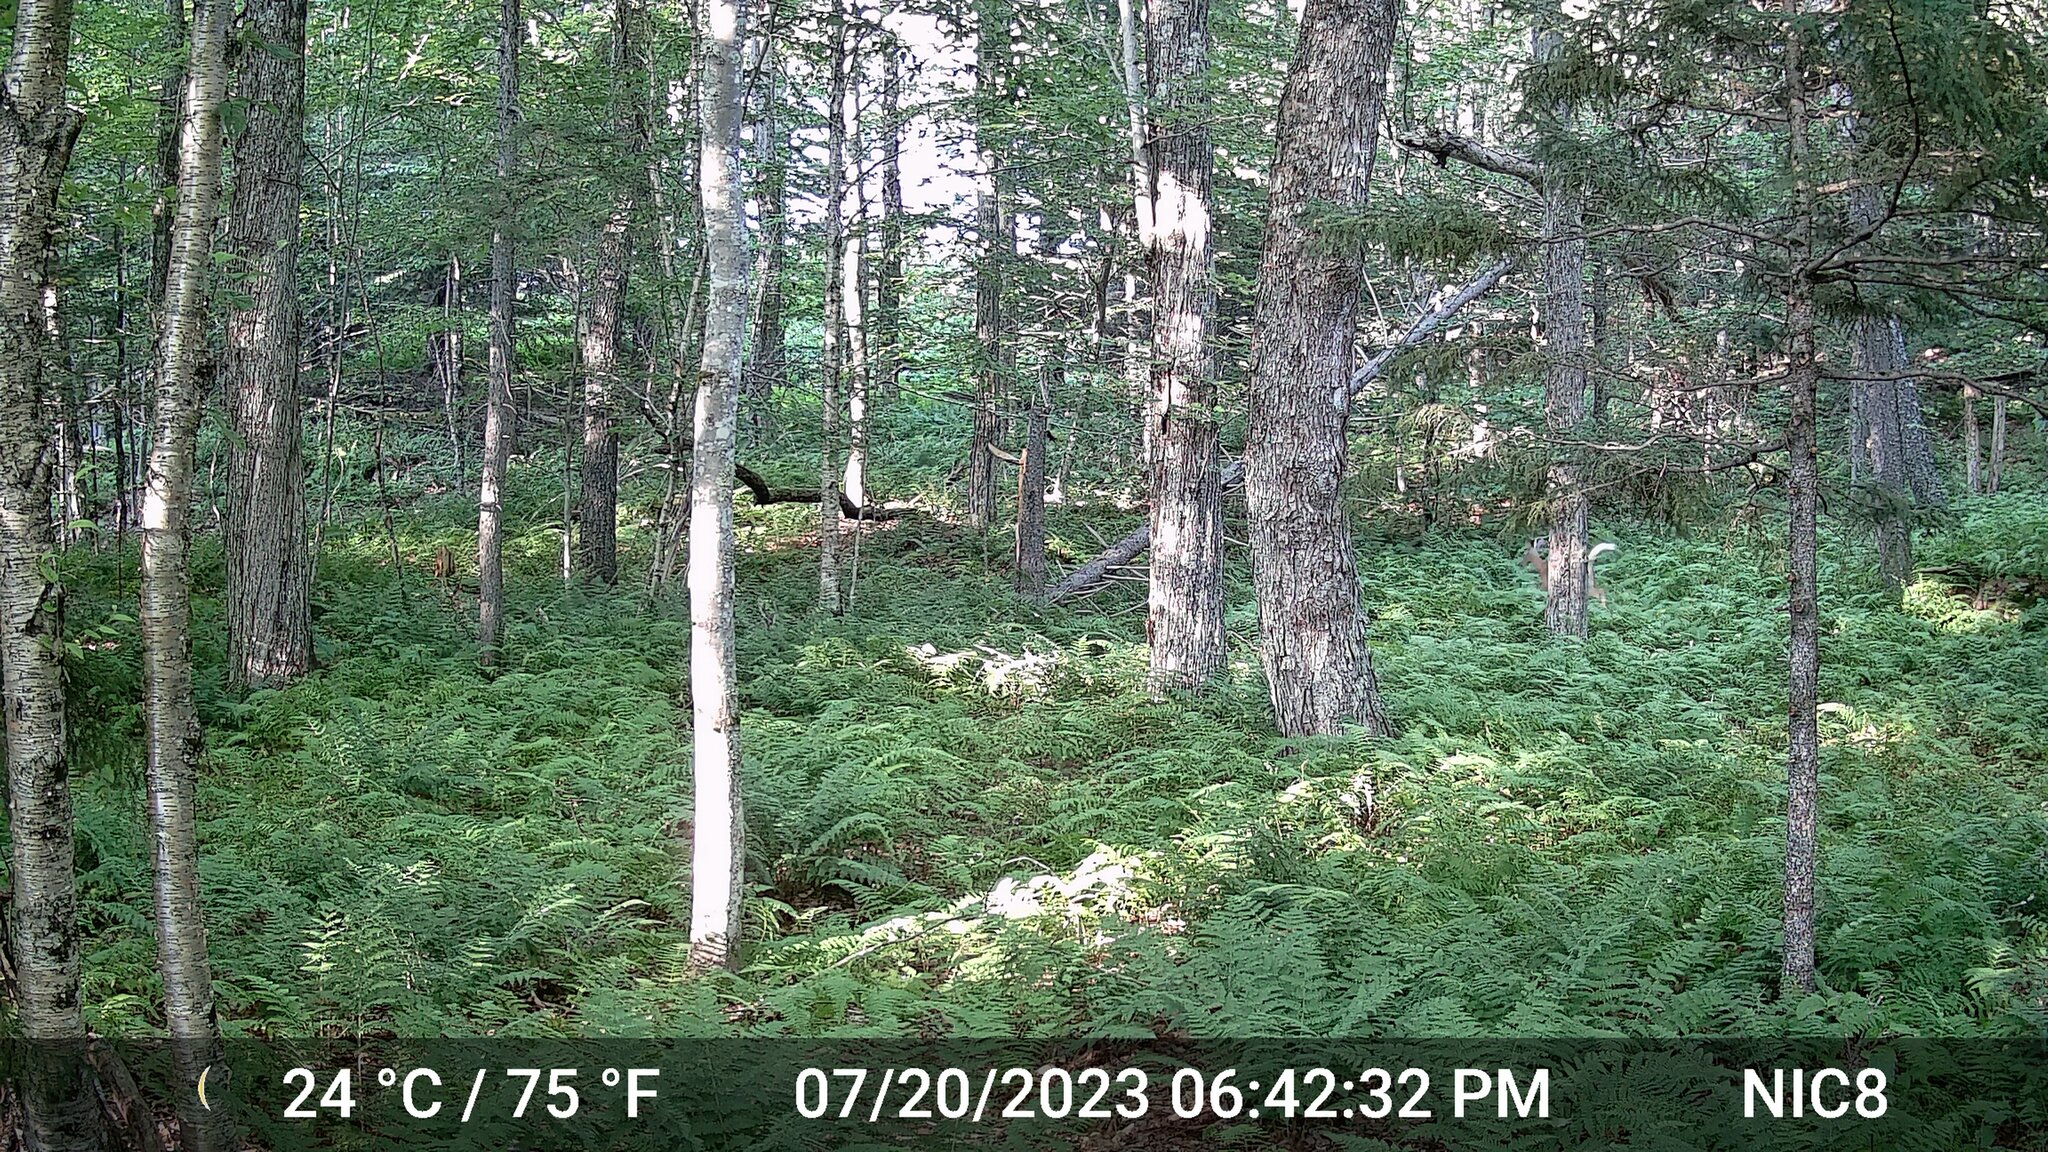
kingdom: Animalia
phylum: Chordata
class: Mammalia
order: Artiodactyla
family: Cervidae
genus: Odocoileus
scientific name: Odocoileus virginianus
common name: White-tailed deer
